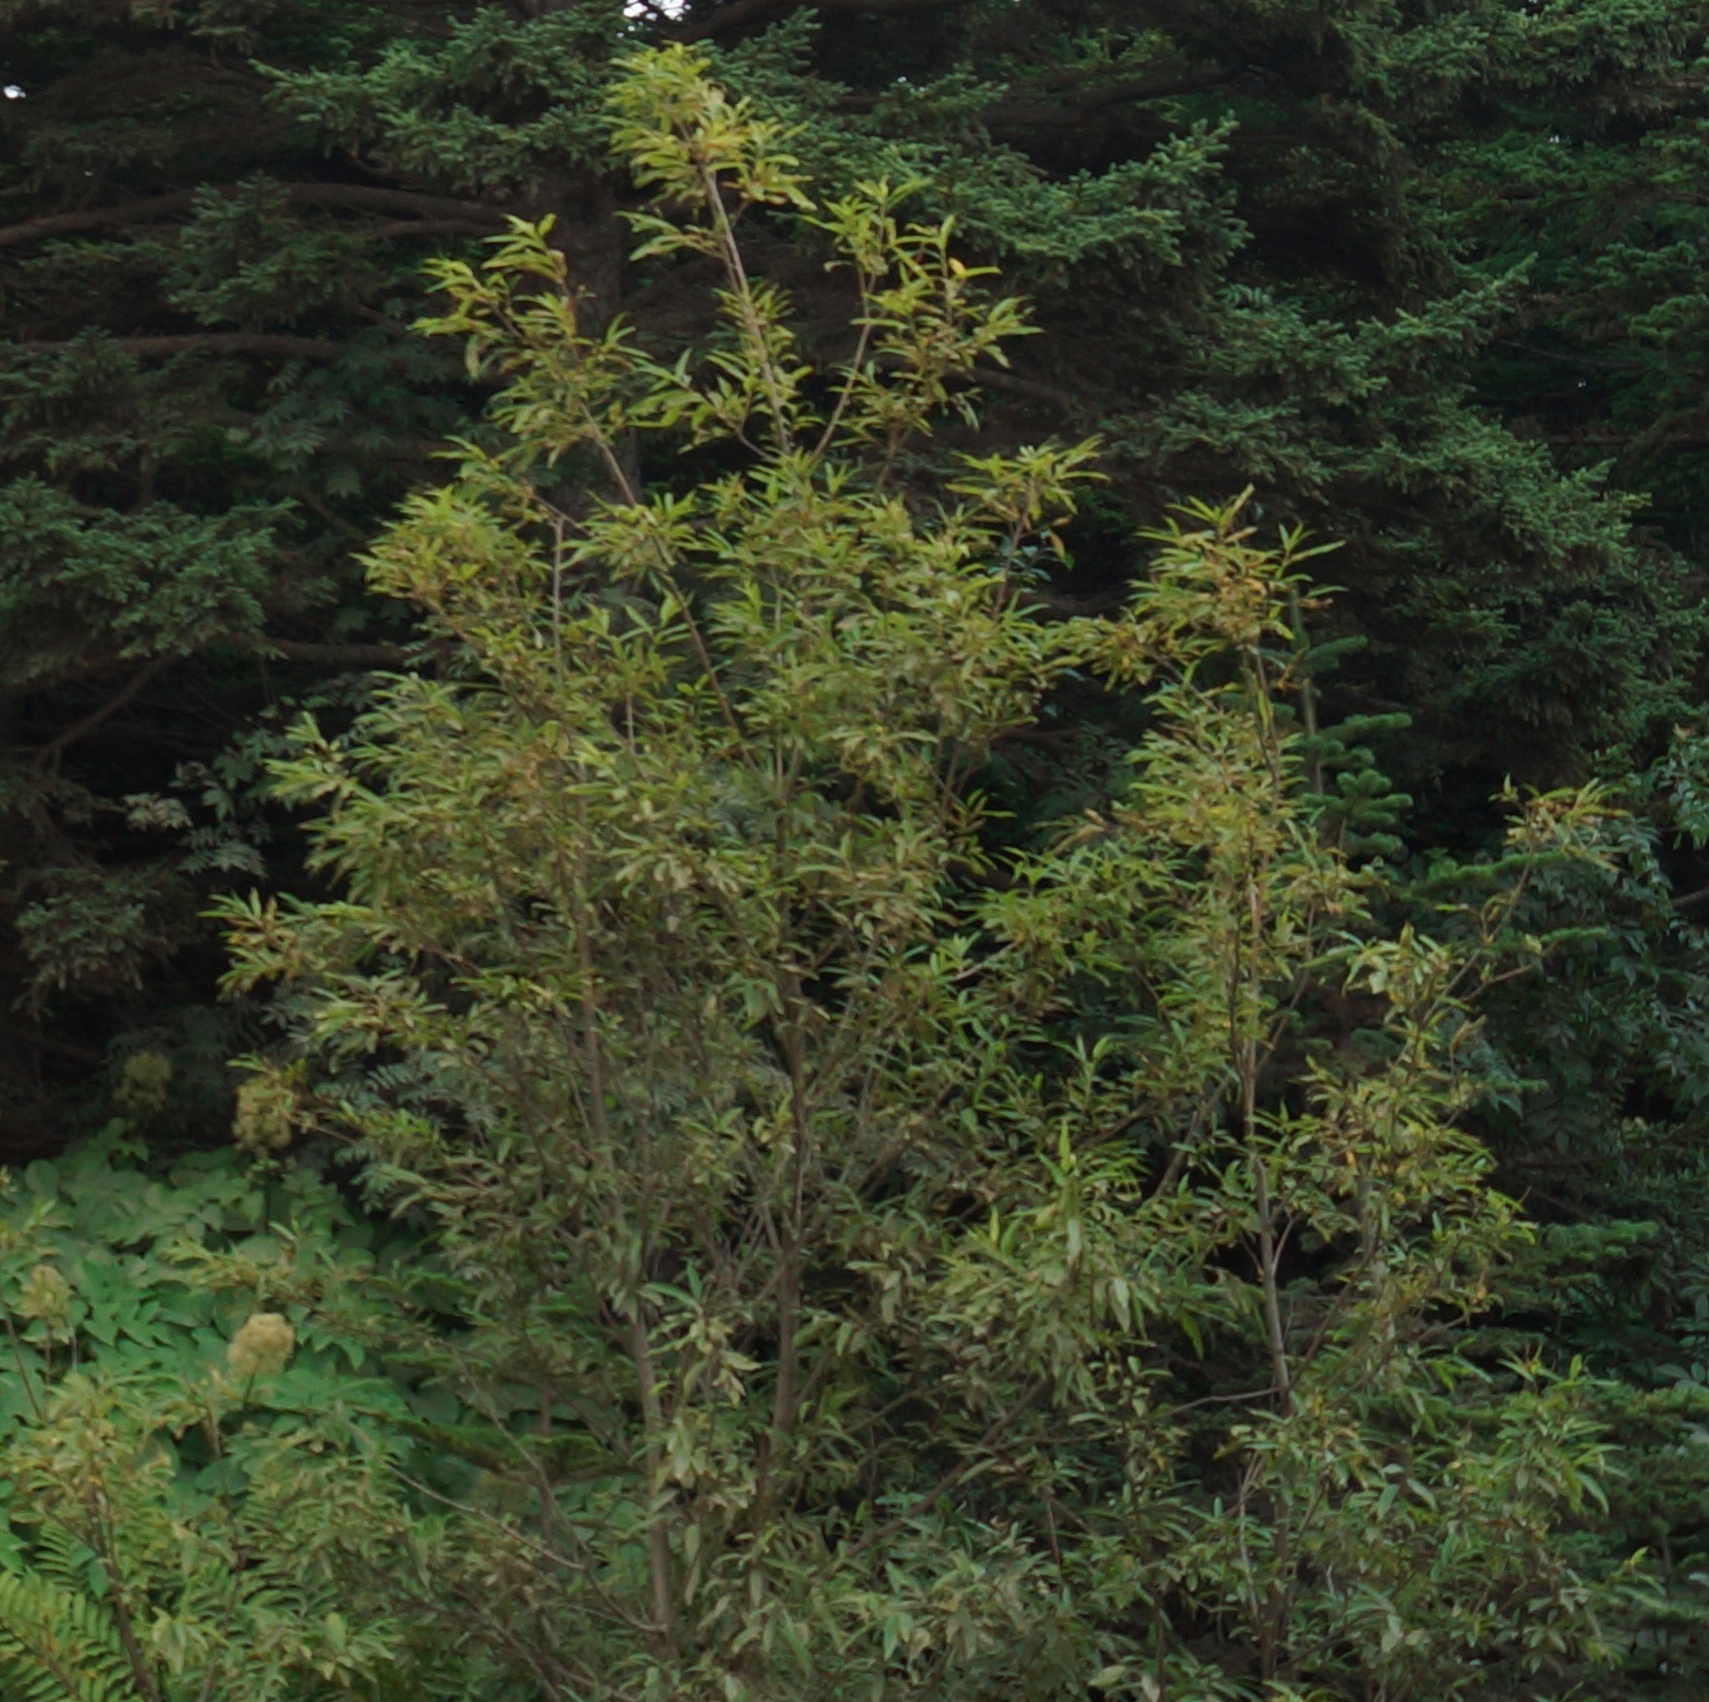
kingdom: Plantae
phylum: Tracheophyta
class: Magnoliopsida
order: Malpighiales
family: Salicaceae
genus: Salix
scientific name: Salix udensis
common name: Sachalin willow
